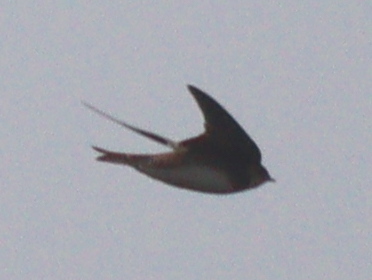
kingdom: Animalia
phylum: Chordata
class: Aves
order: Passeriformes
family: Hirundinidae
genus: Riparia
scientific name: Riparia riparia
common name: Sand martin
